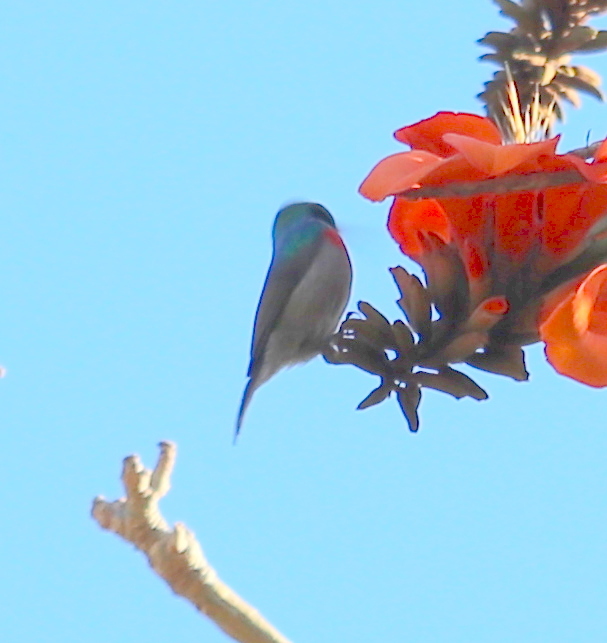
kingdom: Animalia
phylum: Chordata
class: Aves
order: Passeriformes
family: Nectariniidae
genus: Cinnyris
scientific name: Cinnyris chalybeus
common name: Southern double-collared sunbird
